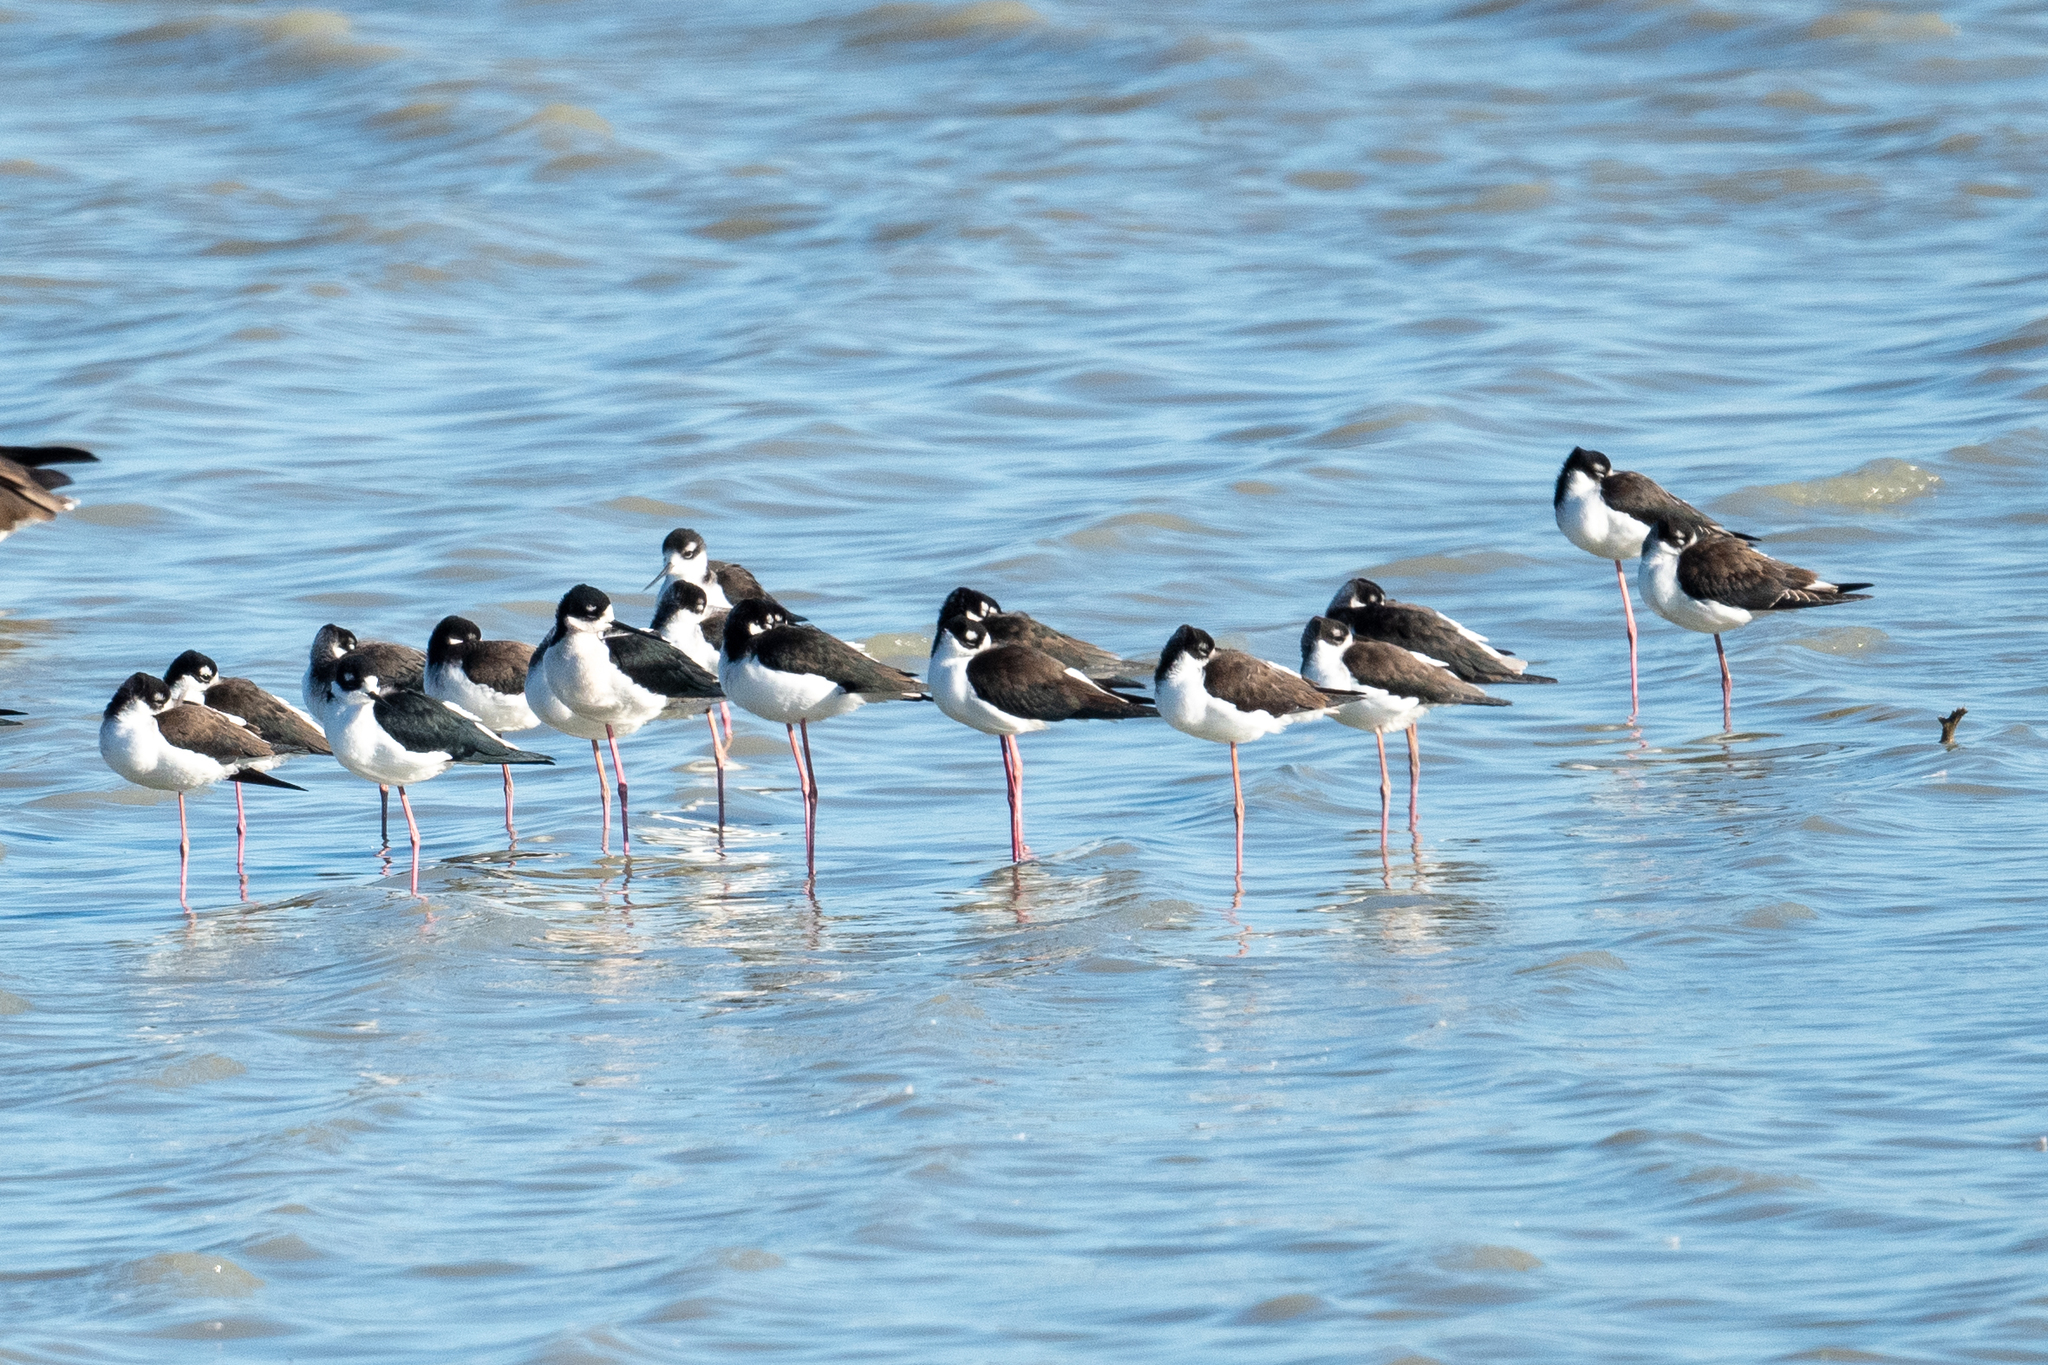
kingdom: Animalia
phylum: Chordata
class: Aves
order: Charadriiformes
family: Recurvirostridae
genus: Himantopus
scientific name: Himantopus mexicanus
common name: Black-necked stilt
